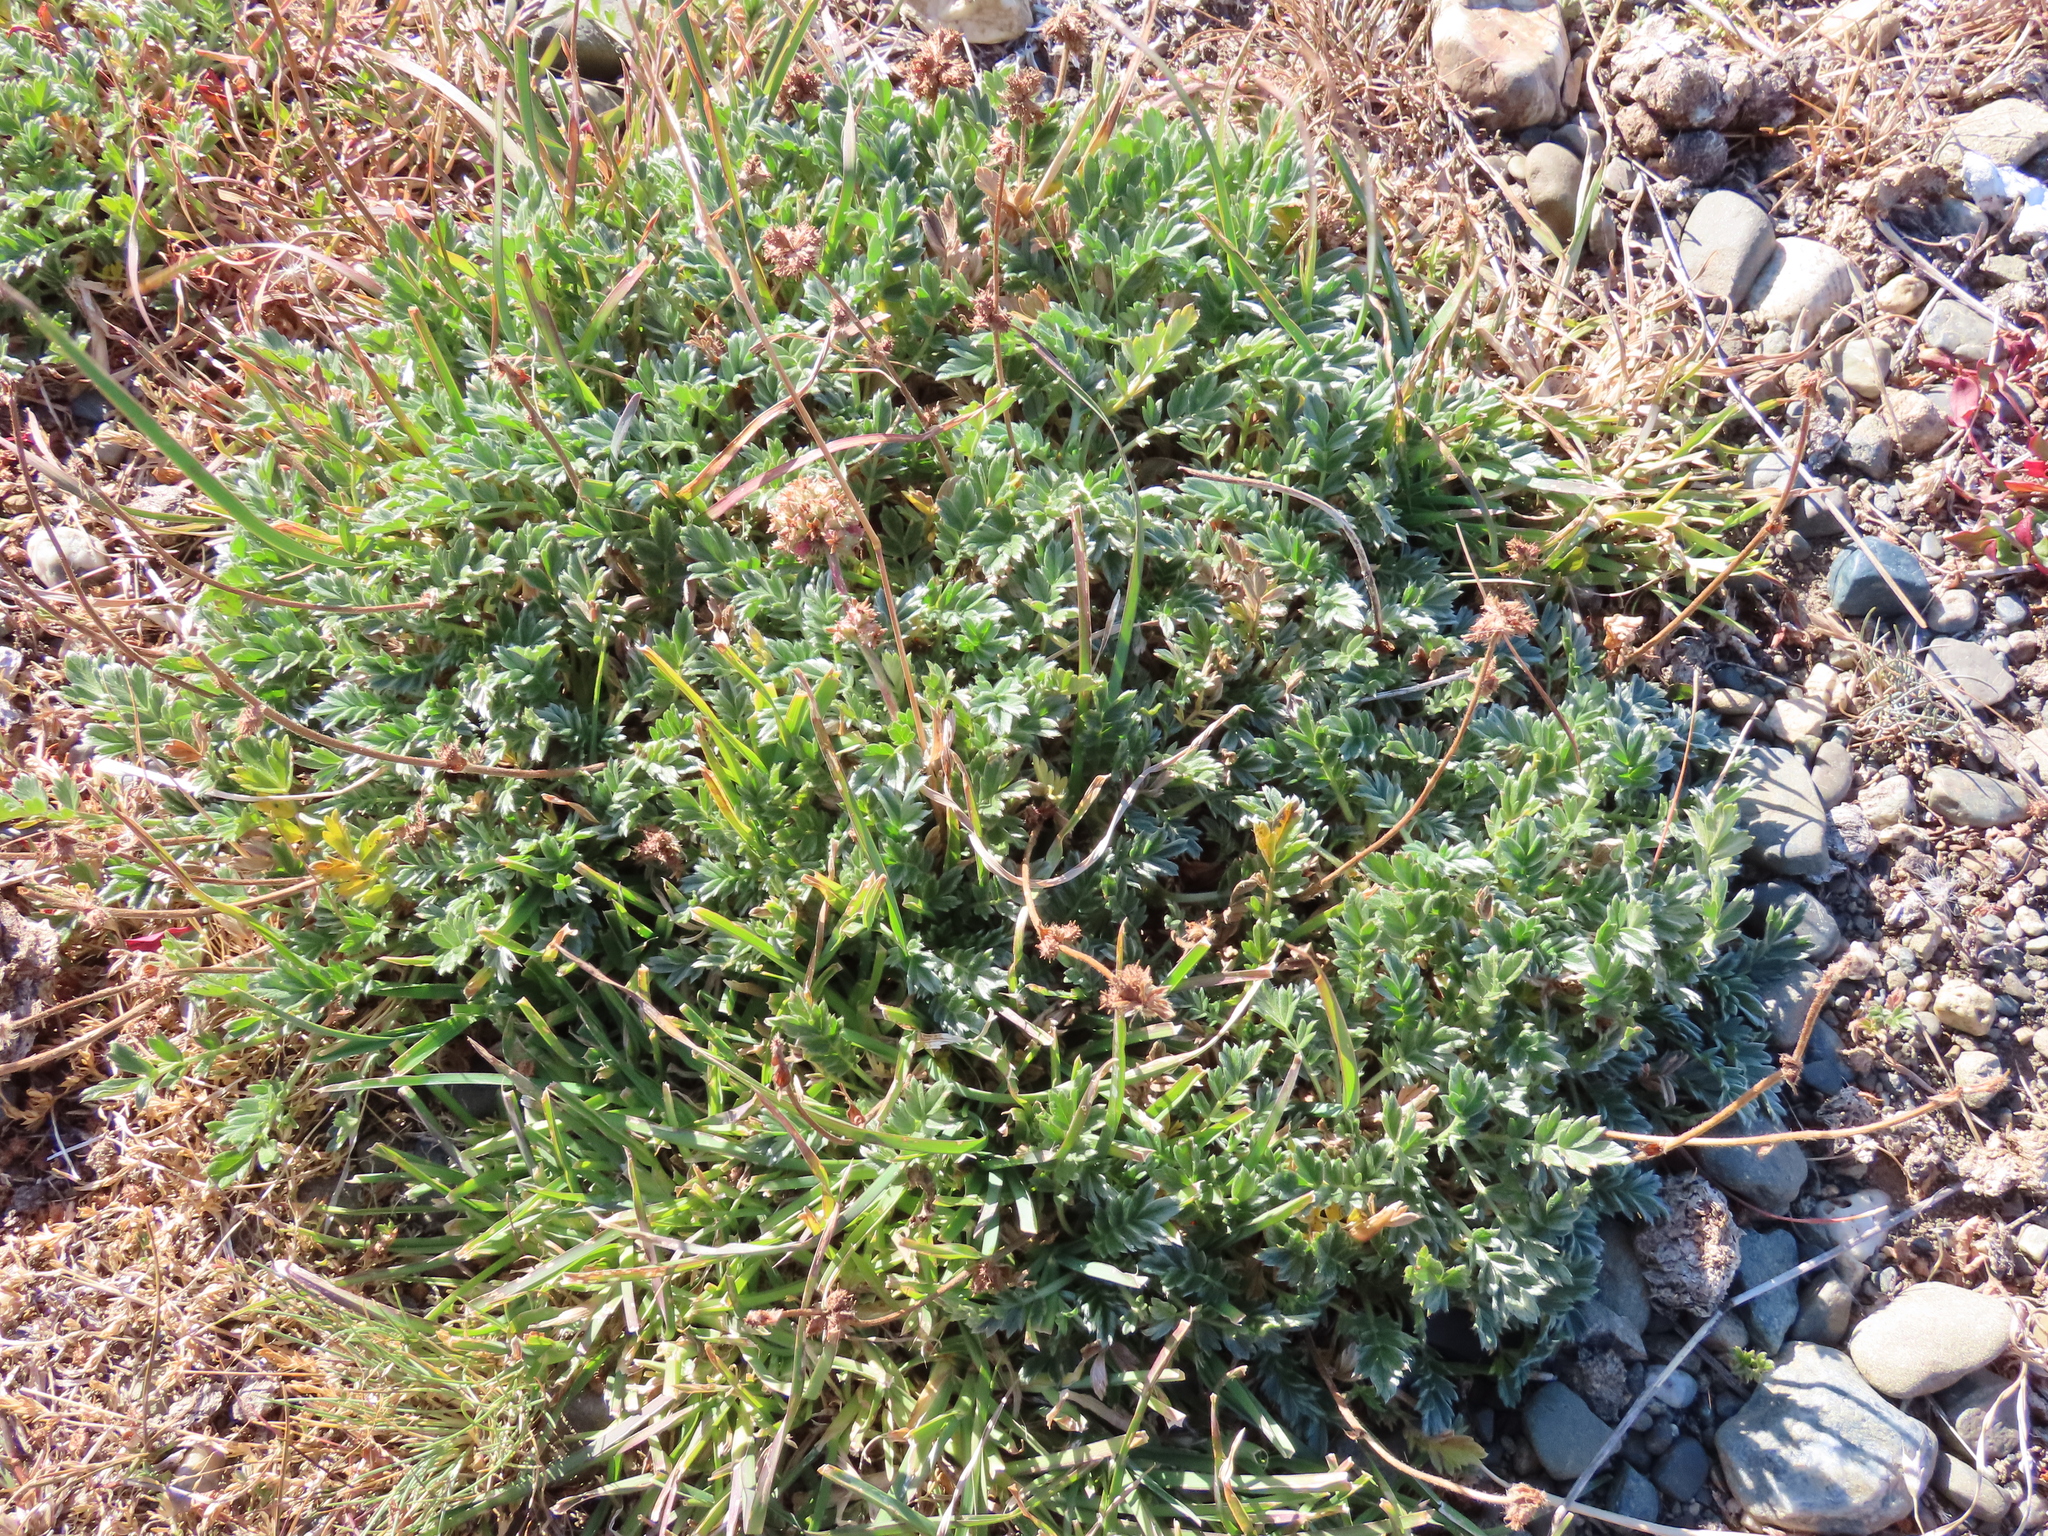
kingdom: Plantae
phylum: Tracheophyta
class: Magnoliopsida
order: Rosales
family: Rosaceae
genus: Acaena
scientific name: Acaena sericea
